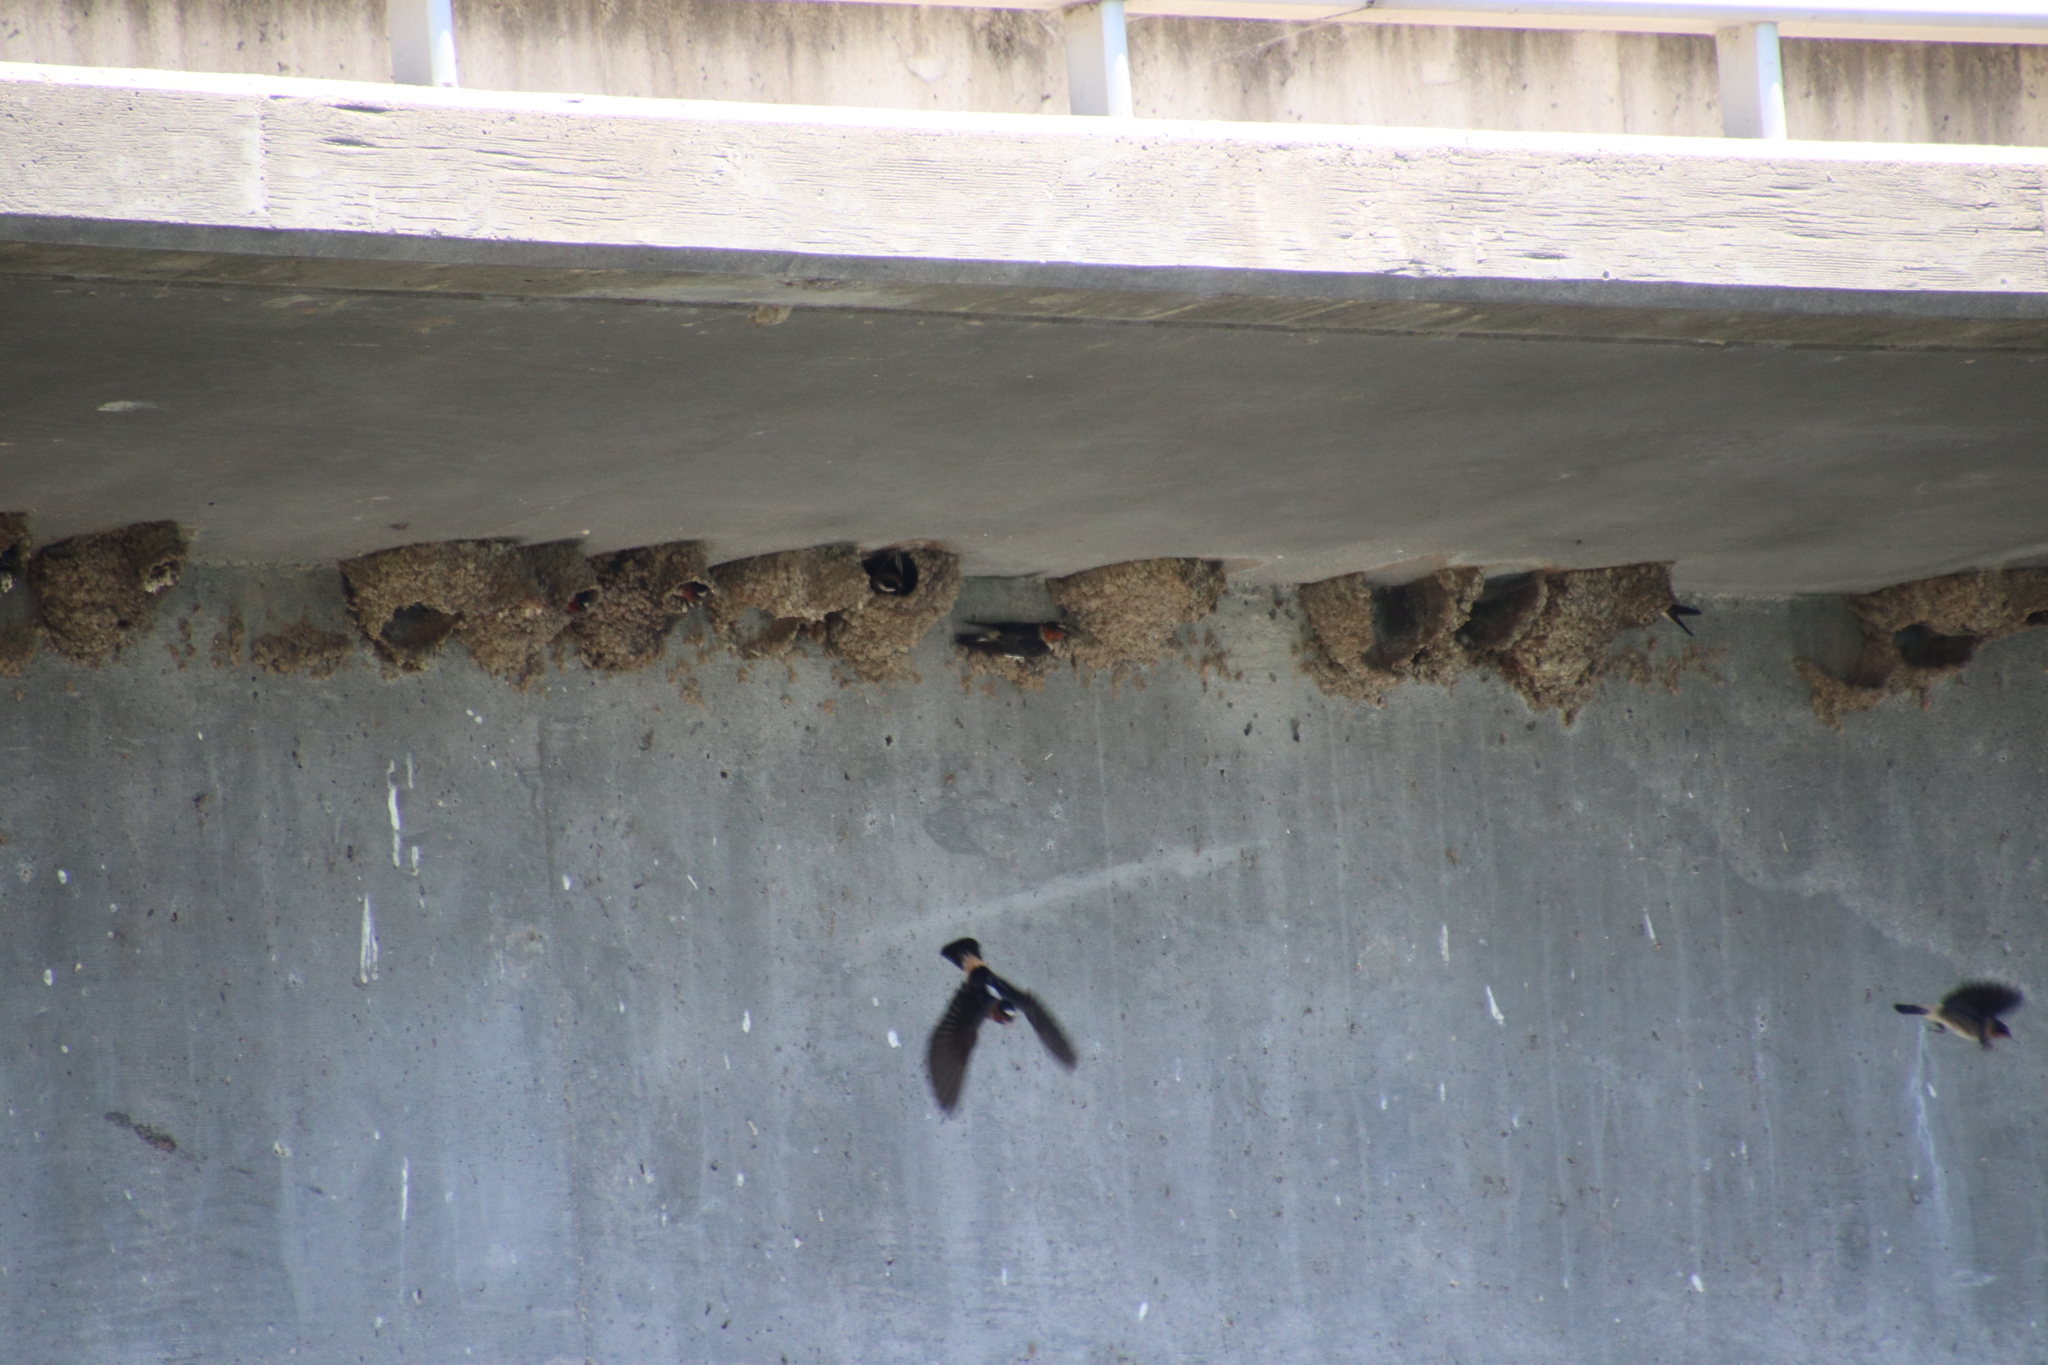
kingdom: Animalia
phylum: Chordata
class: Aves
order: Passeriformes
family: Hirundinidae
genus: Petrochelidon
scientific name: Petrochelidon pyrrhonota
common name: American cliff swallow
